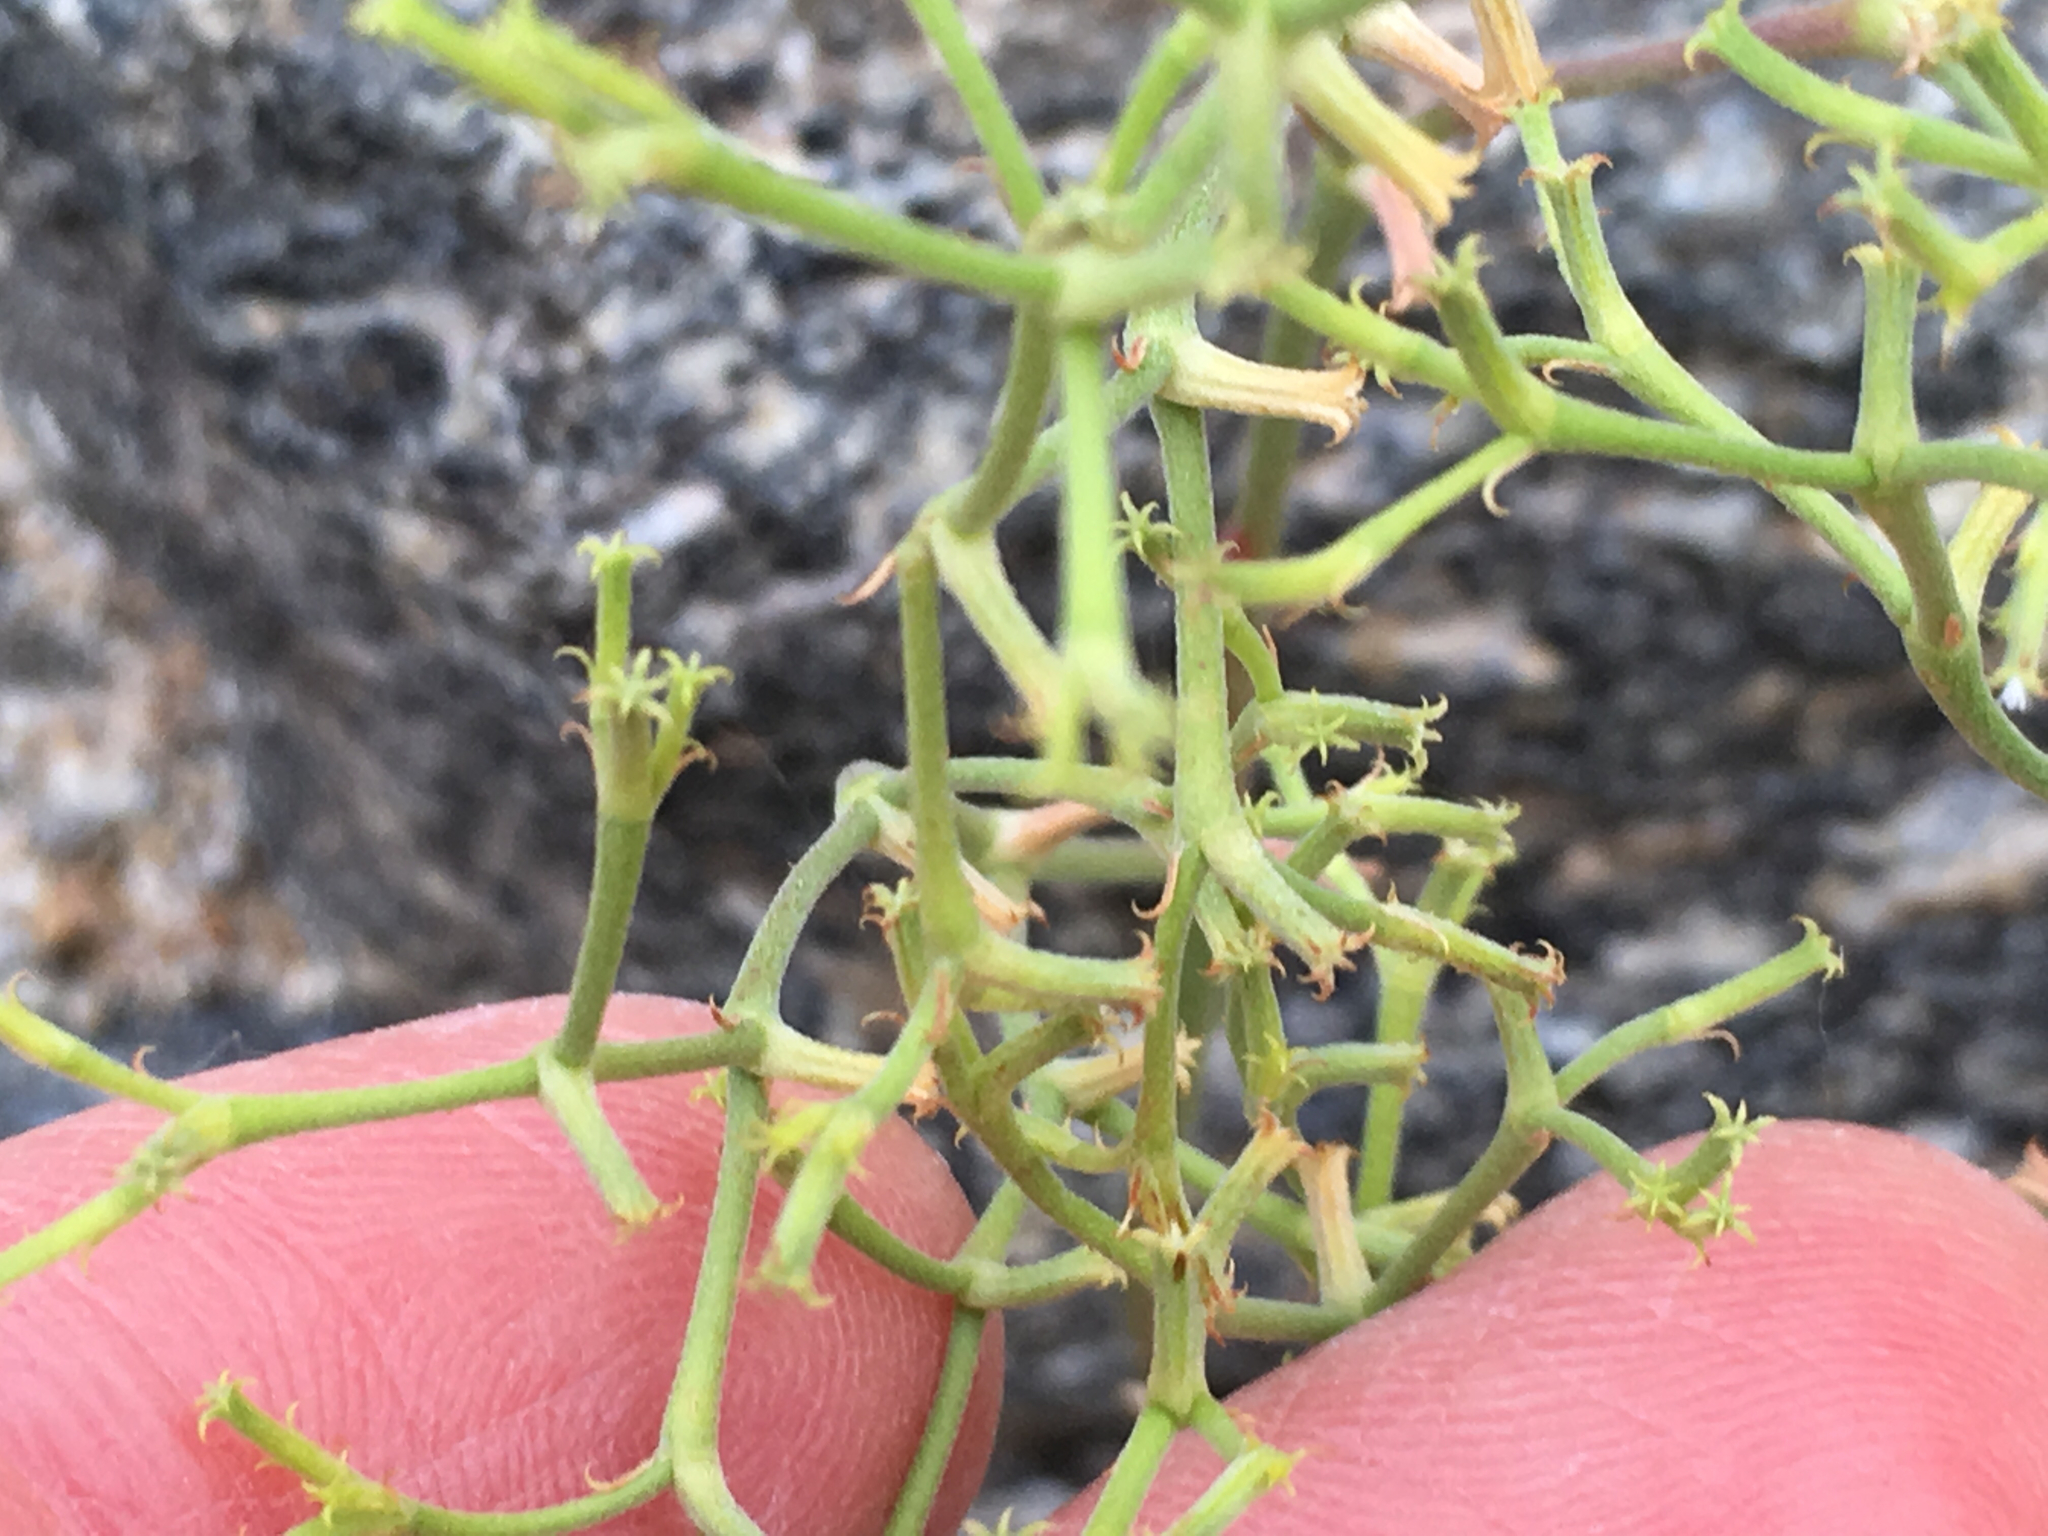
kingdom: Plantae
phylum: Tracheophyta
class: Magnoliopsida
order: Caryophyllales
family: Polygonaceae
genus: Chorizanthe
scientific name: Chorizanthe brevicornu
